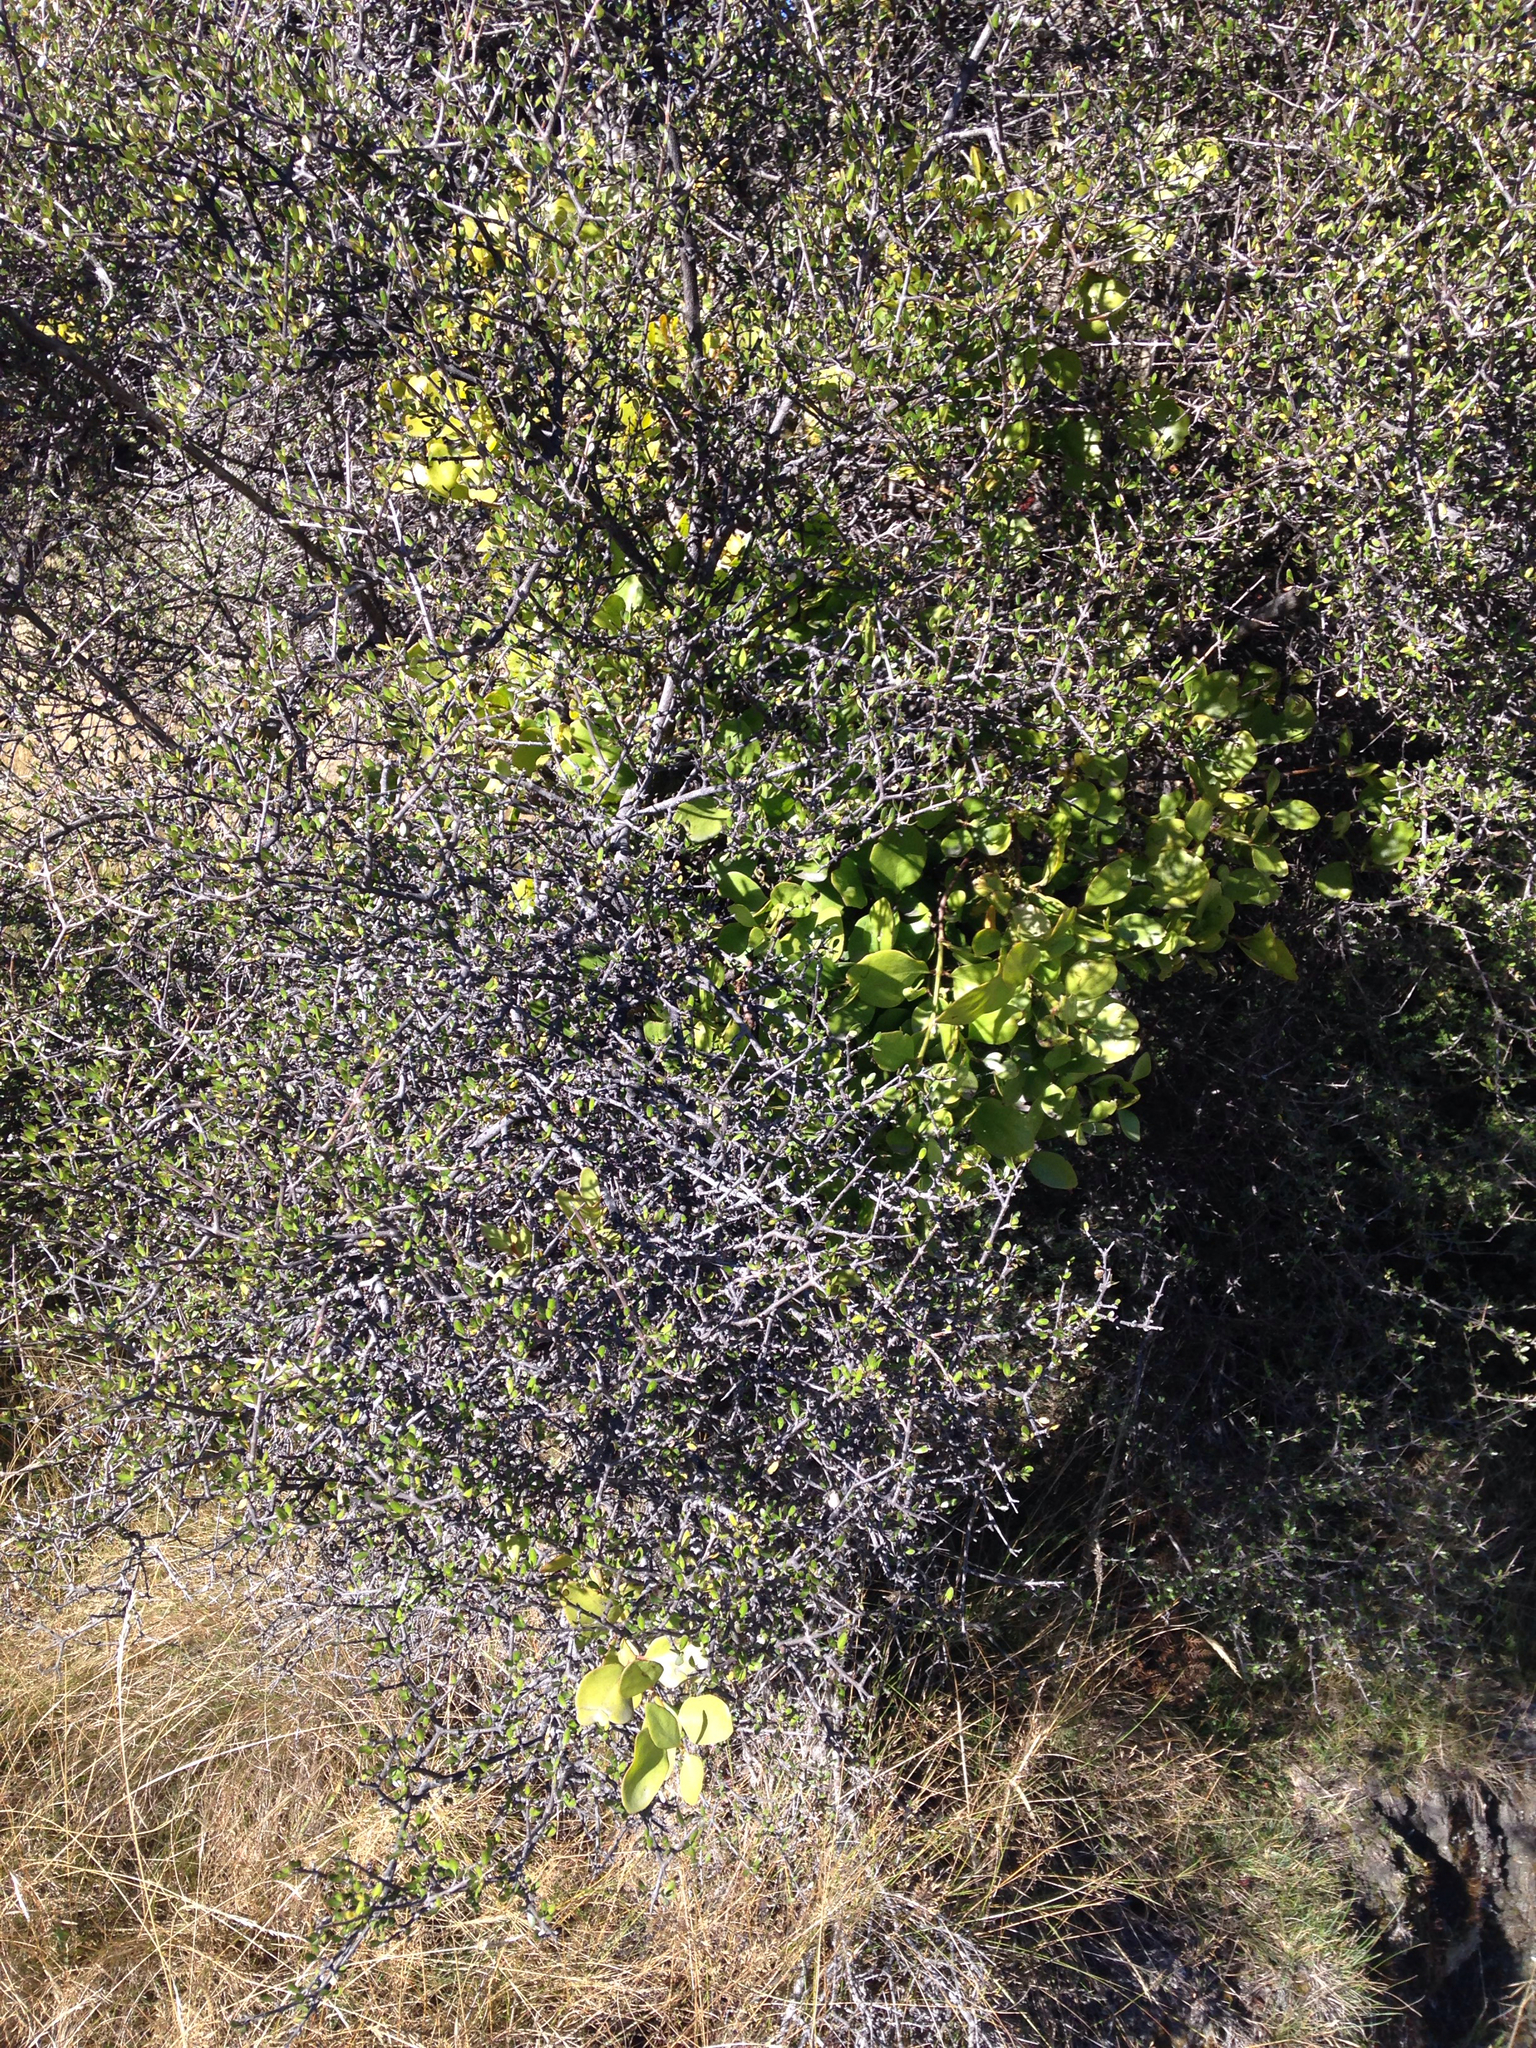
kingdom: Plantae
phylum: Tracheophyta
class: Magnoliopsida
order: Santalales
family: Loranthaceae
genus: Ileostylus
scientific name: Ileostylus micranthus
